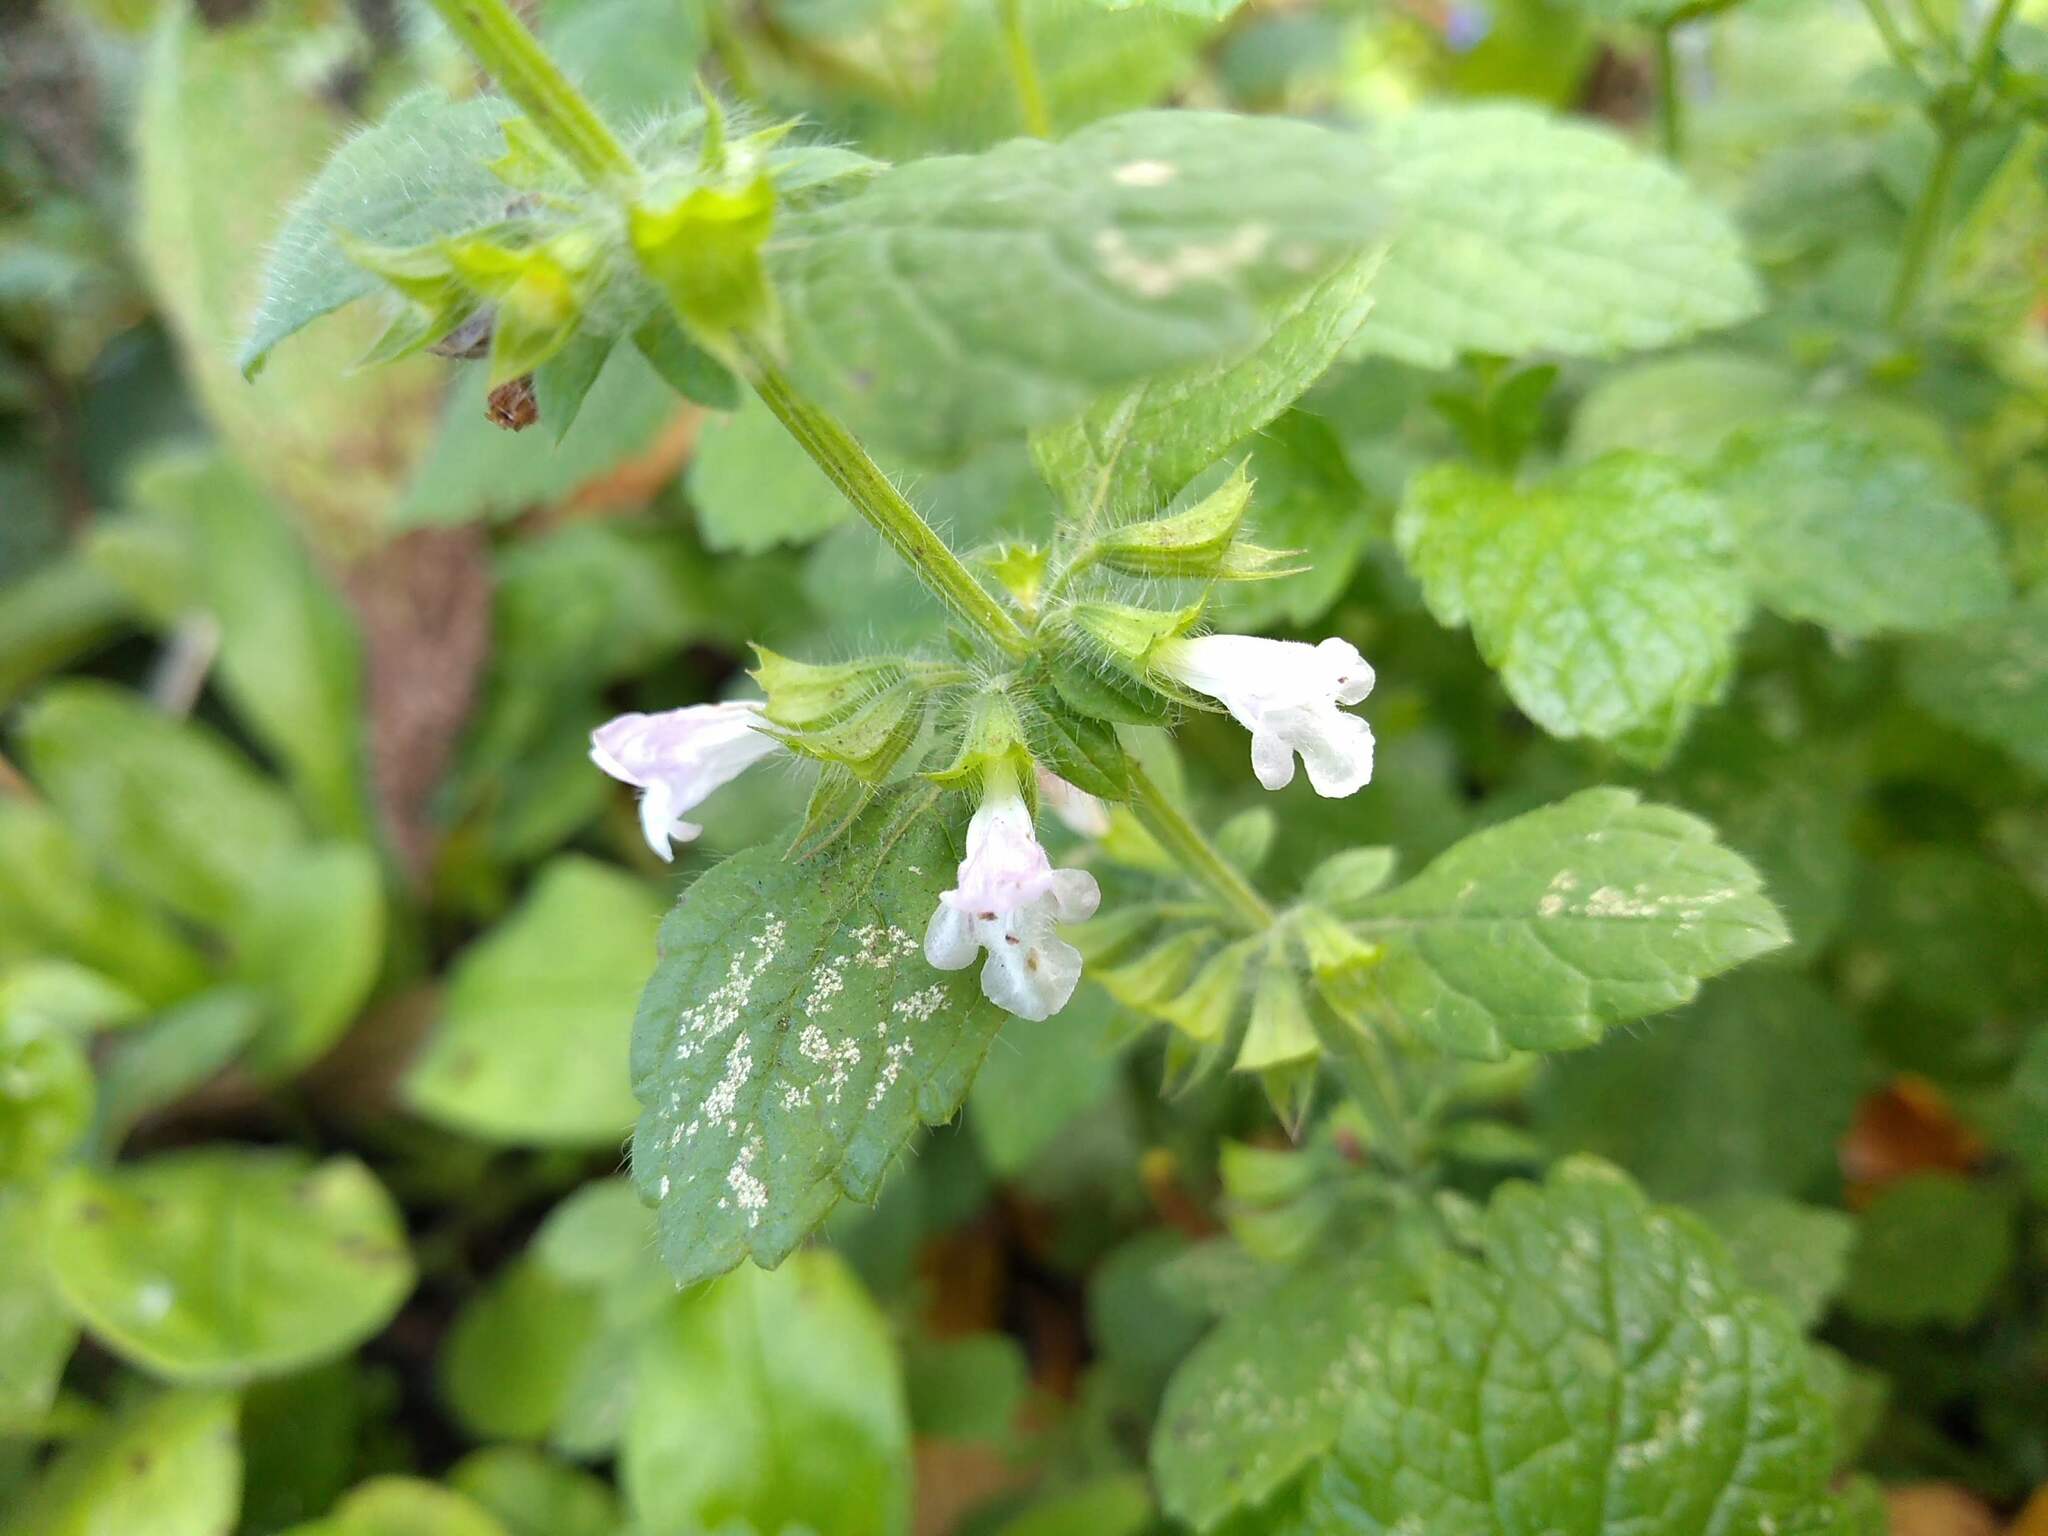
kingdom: Plantae
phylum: Tracheophyta
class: Magnoliopsida
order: Lamiales
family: Lamiaceae
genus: Melissa
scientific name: Melissa officinalis
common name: Balm
